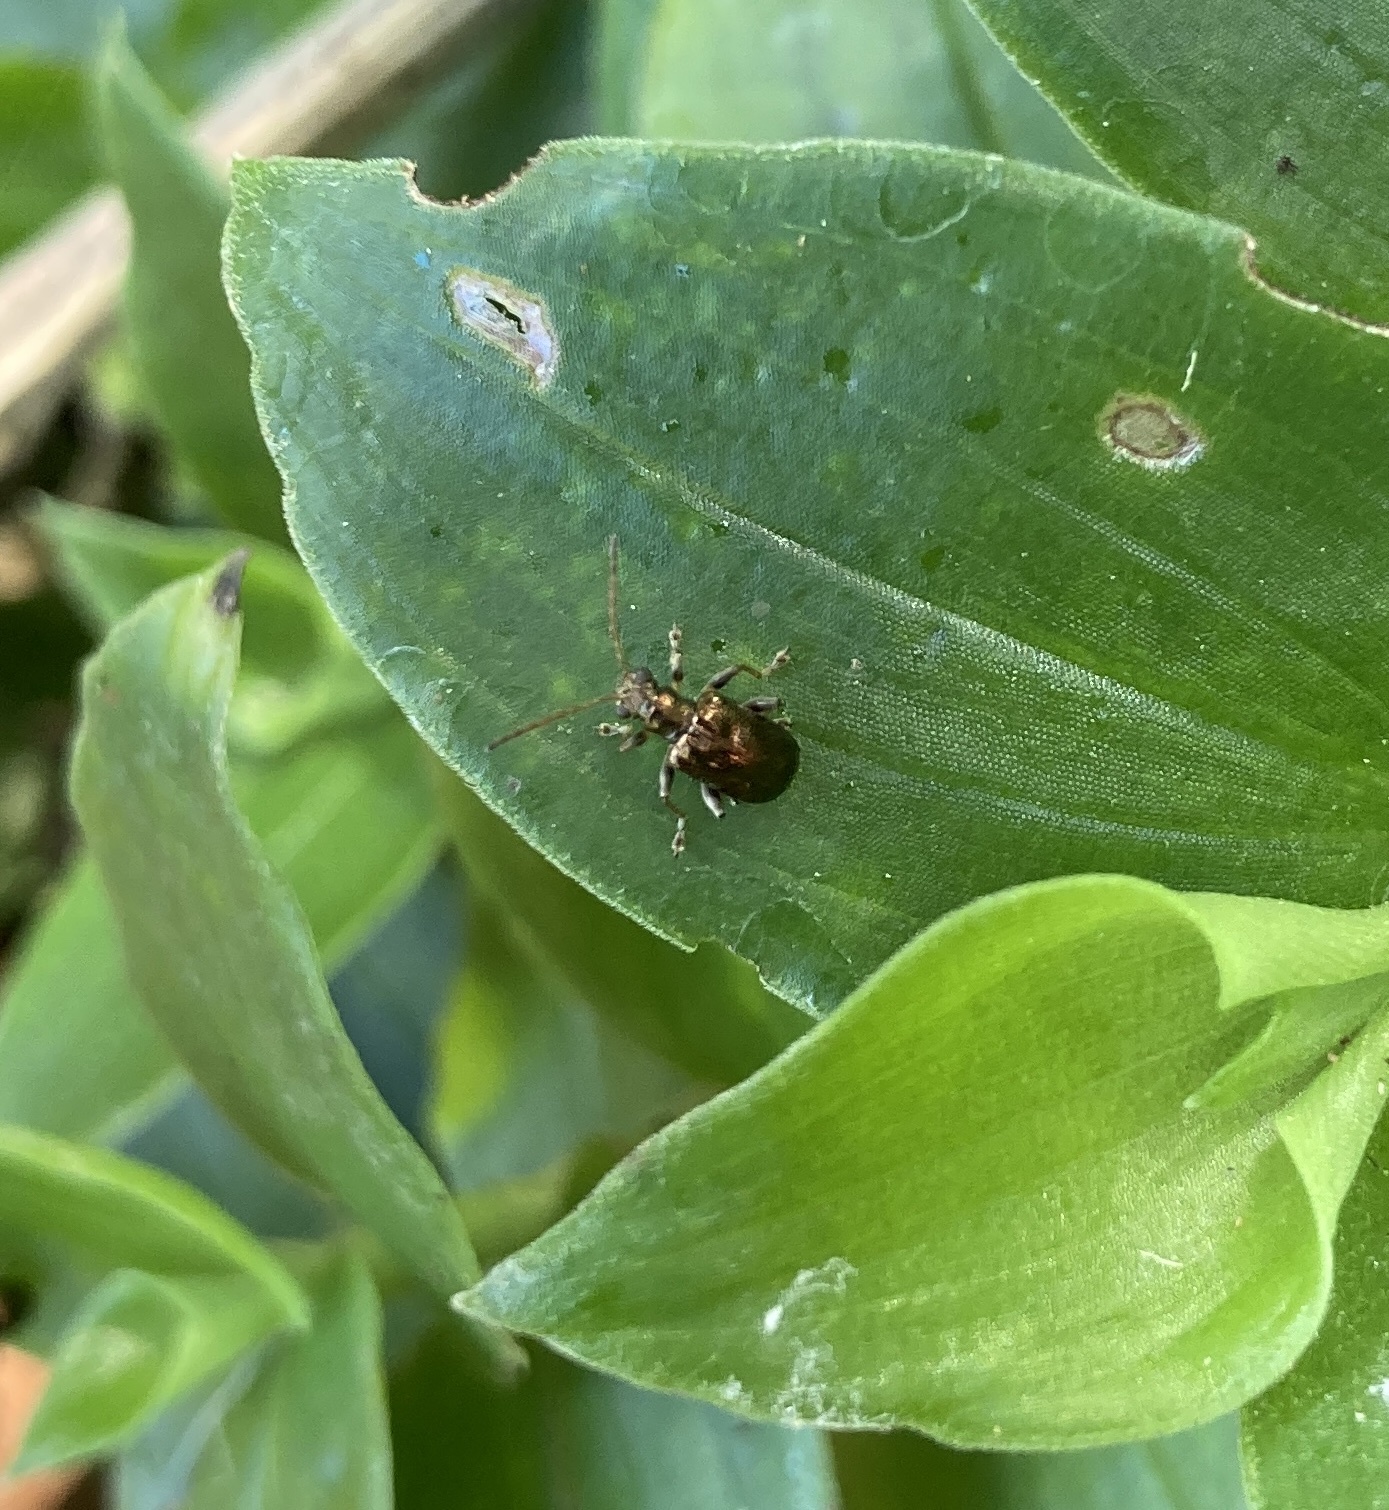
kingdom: Animalia
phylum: Arthropoda
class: Insecta
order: Coleoptera
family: Chrysomelidae
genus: Neolema
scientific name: Neolema ogloblini
